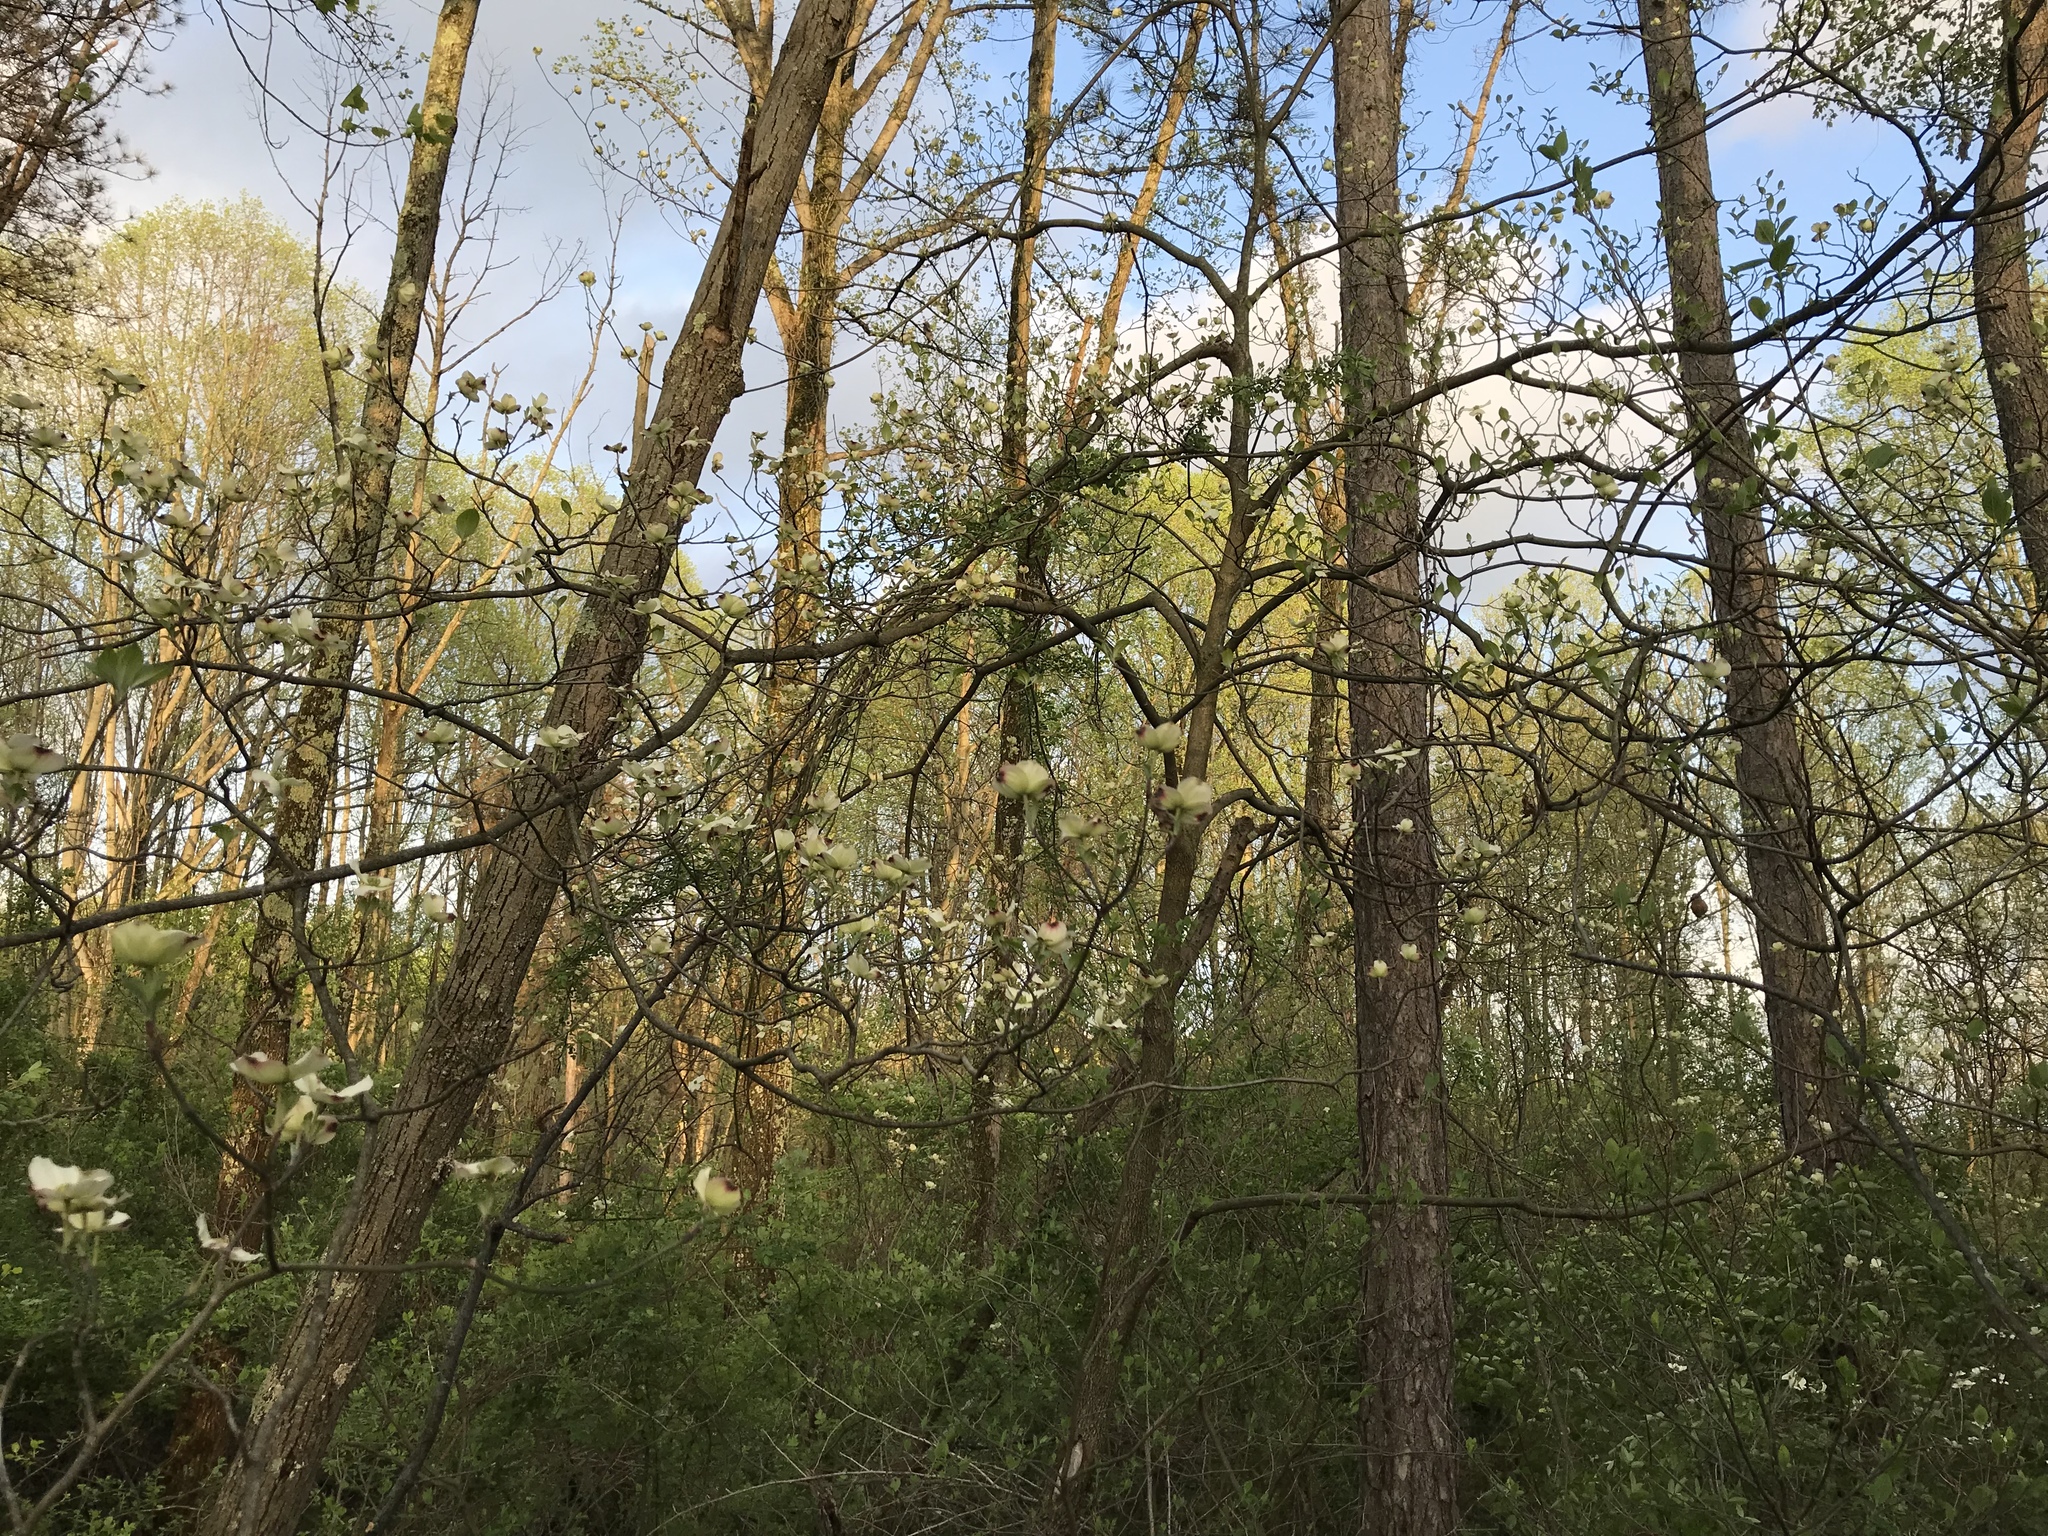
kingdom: Plantae
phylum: Tracheophyta
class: Magnoliopsida
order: Cornales
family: Cornaceae
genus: Cornus
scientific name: Cornus florida
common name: Flowering dogwood
